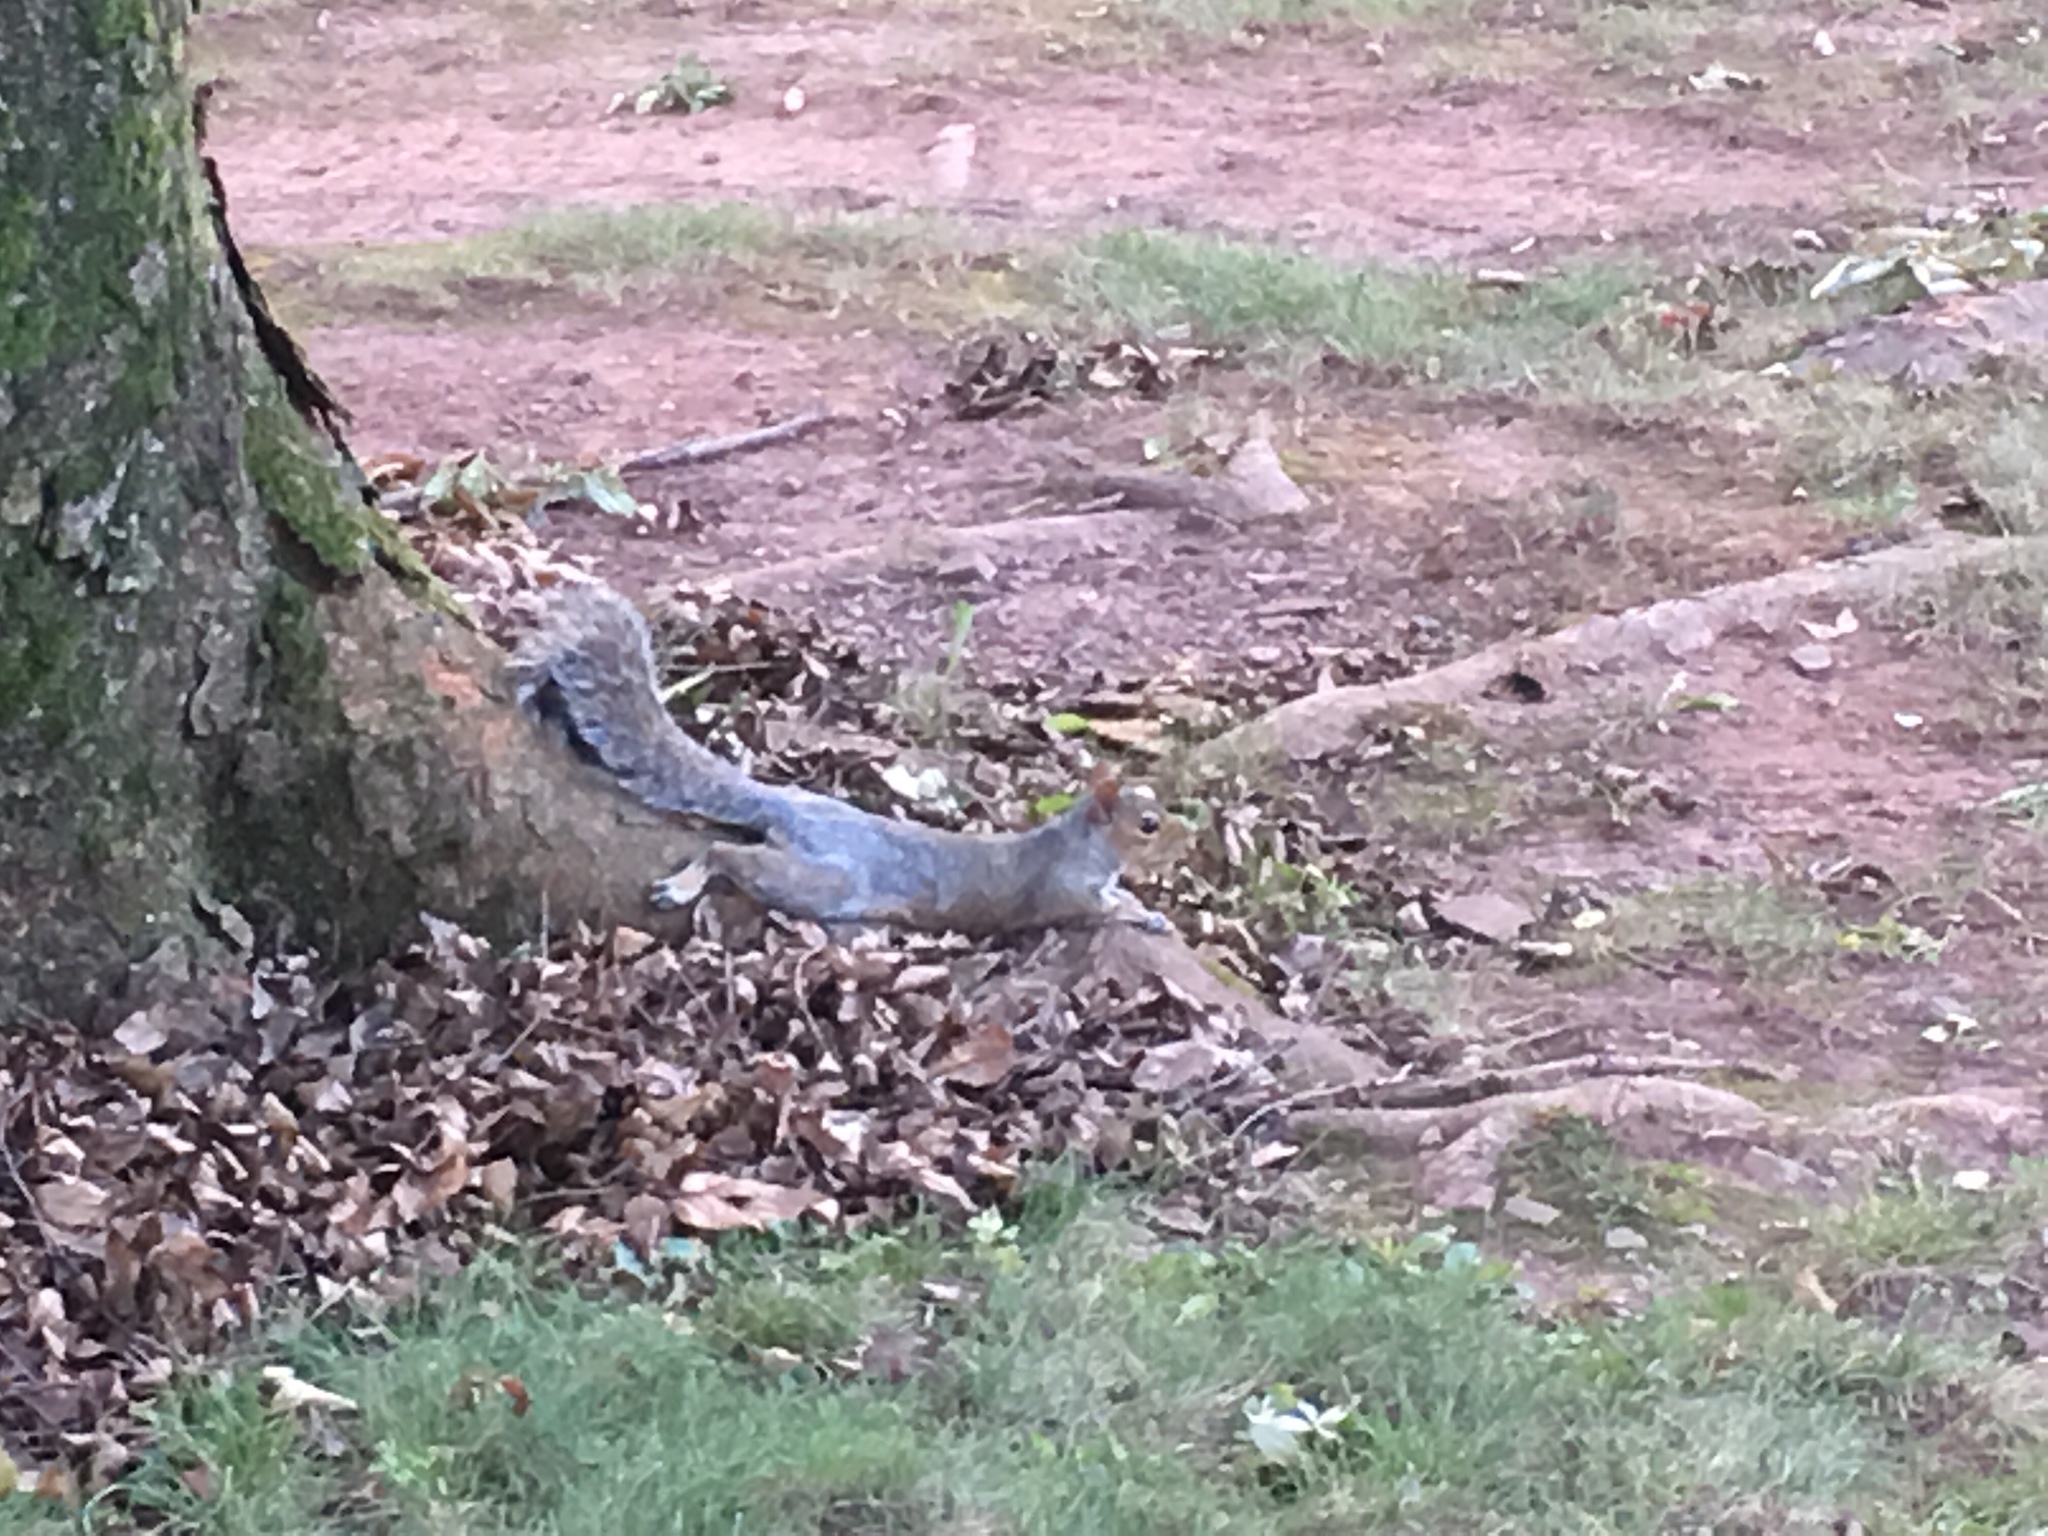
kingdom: Animalia
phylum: Chordata
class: Mammalia
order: Rodentia
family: Sciuridae
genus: Sciurus
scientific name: Sciurus carolinensis
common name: Eastern gray squirrel
